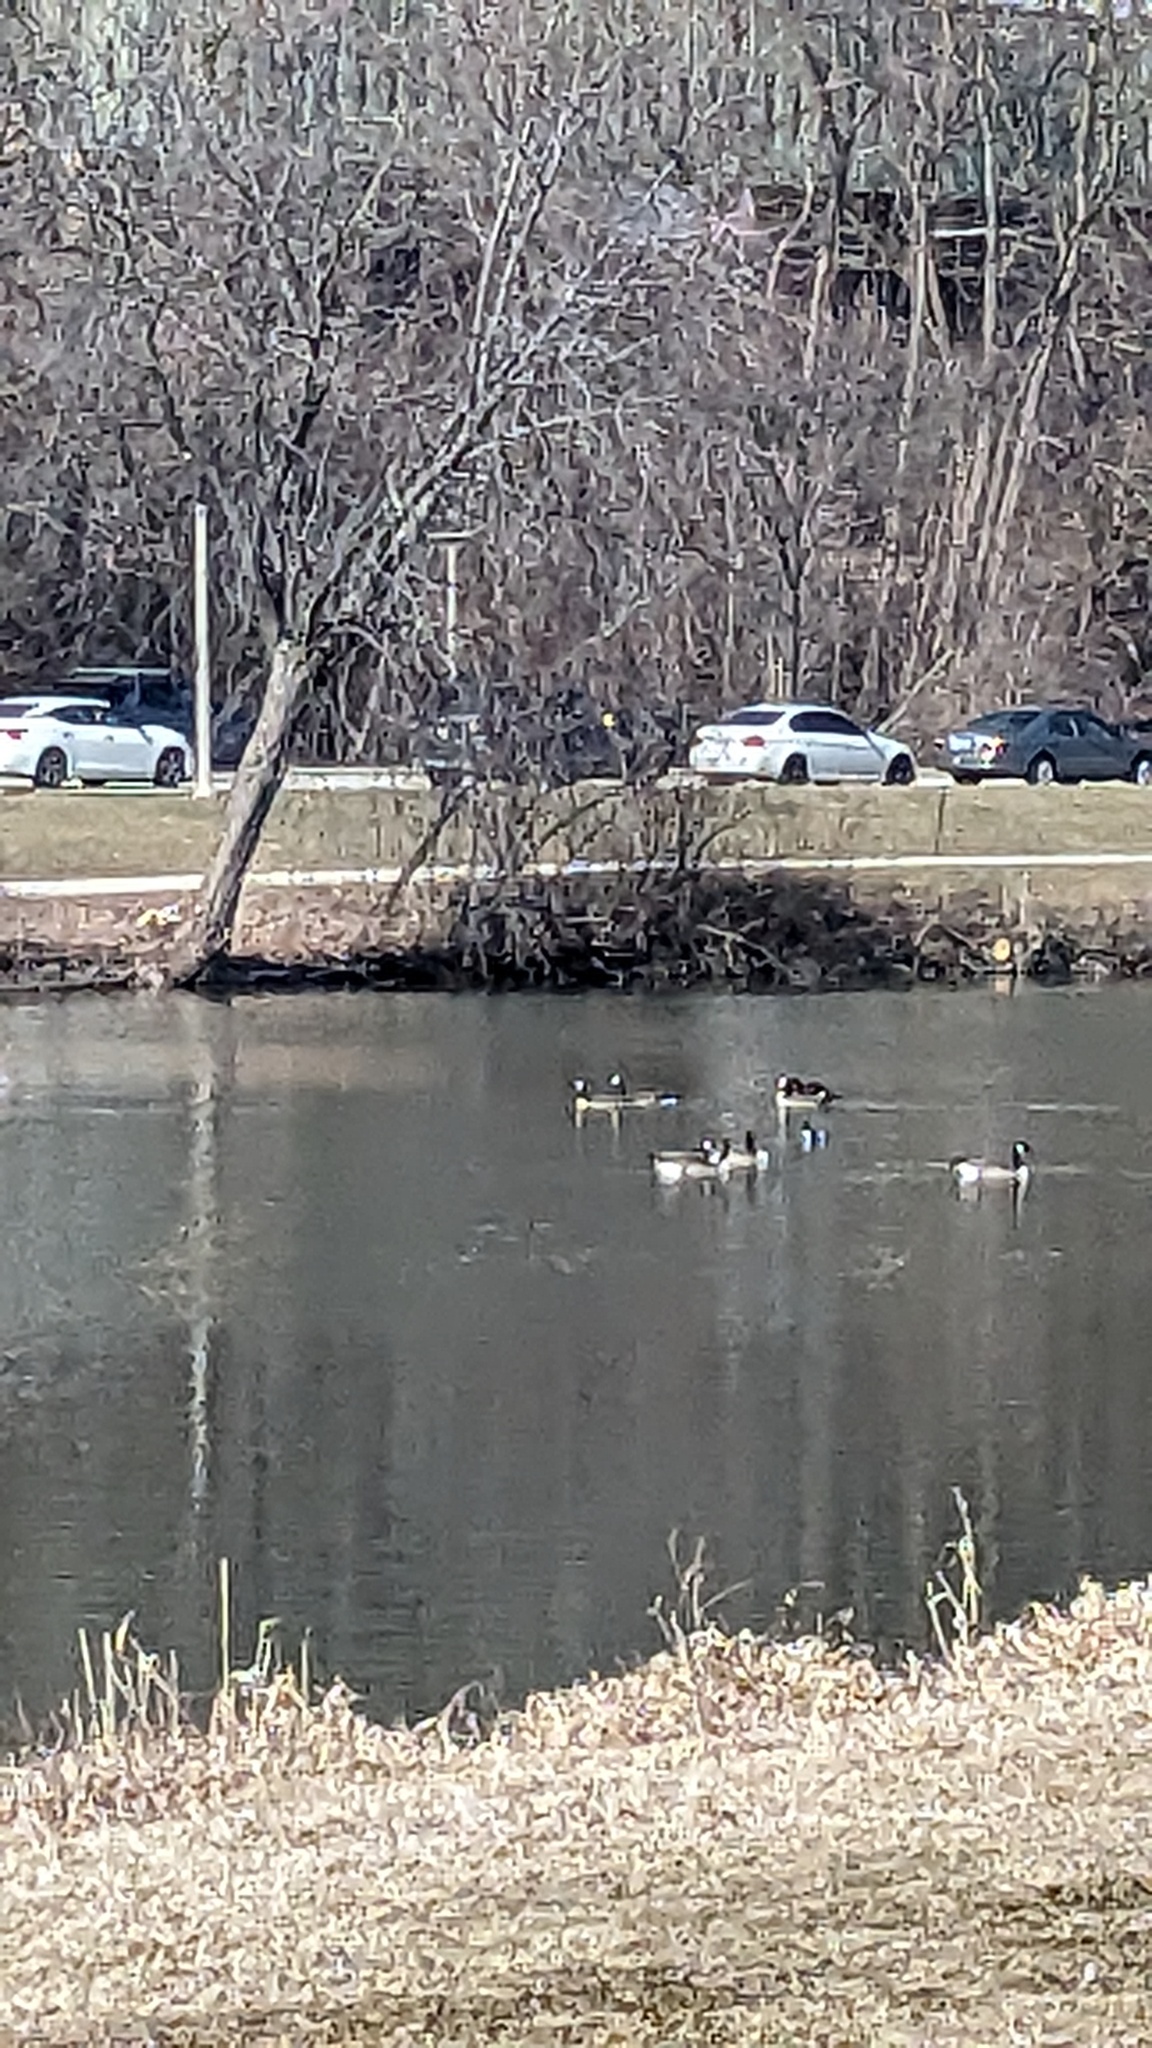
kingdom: Animalia
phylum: Chordata
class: Aves
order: Anseriformes
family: Anatidae
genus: Branta
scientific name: Branta canadensis
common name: Canada goose
